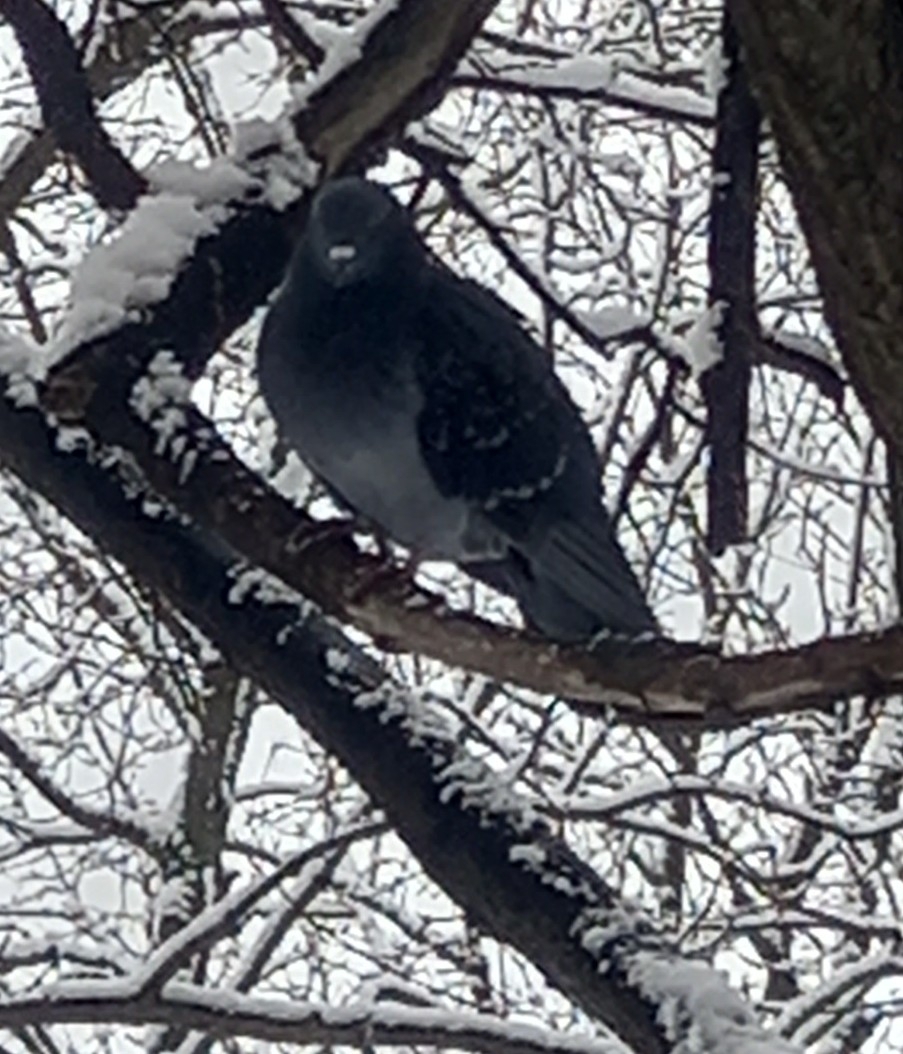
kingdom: Animalia
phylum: Chordata
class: Aves
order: Columbiformes
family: Columbidae
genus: Columba
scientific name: Columba livia
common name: Rock pigeon
